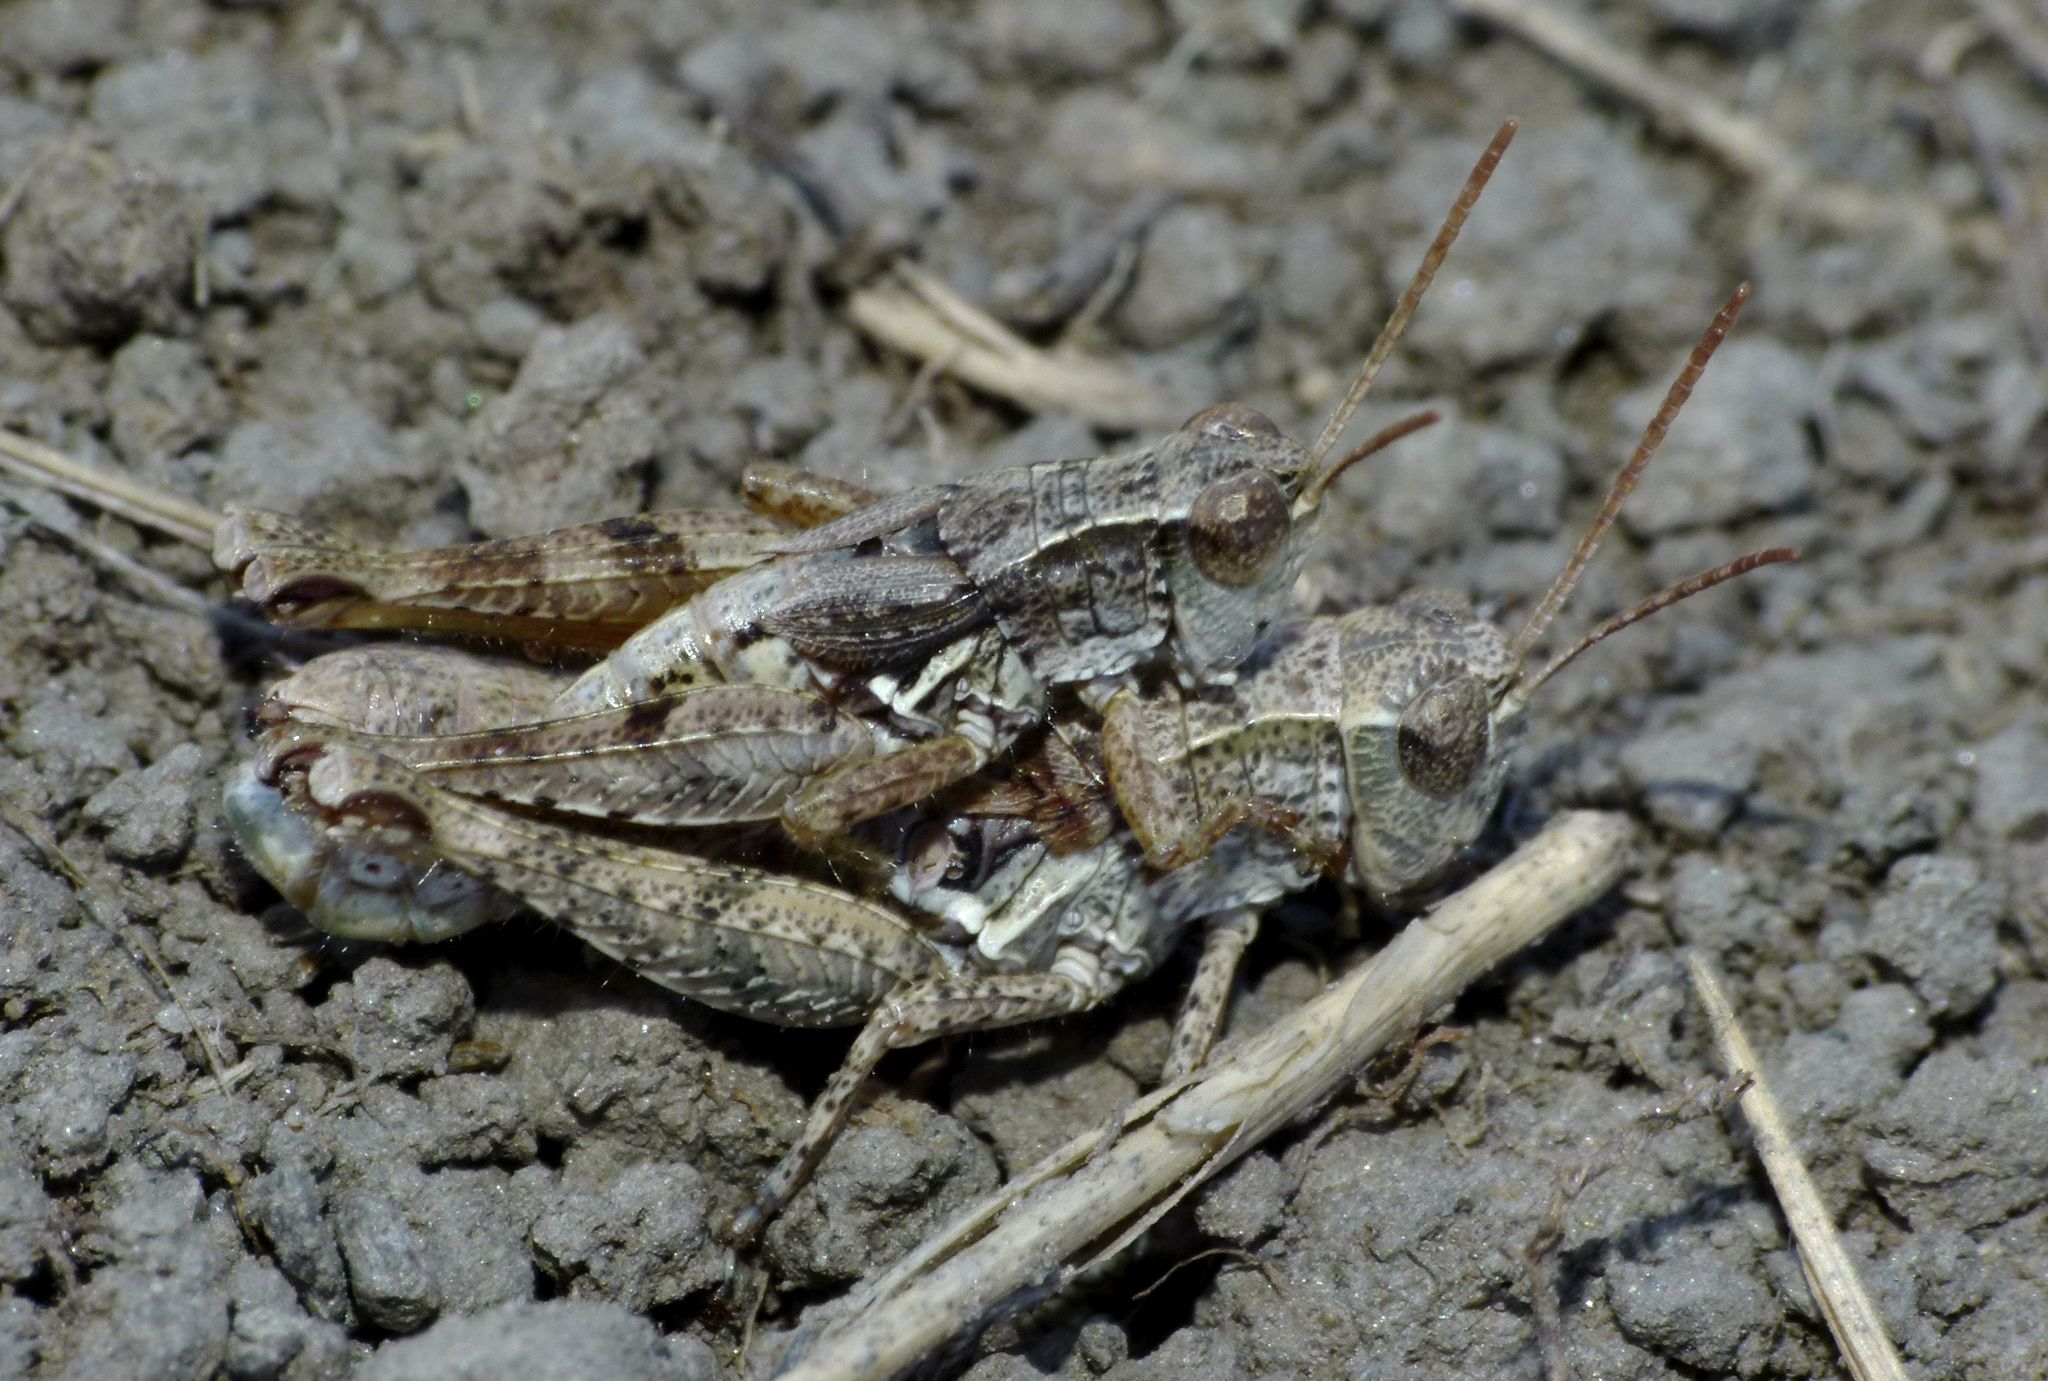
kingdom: Animalia
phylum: Arthropoda
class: Insecta
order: Orthoptera
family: Acrididae
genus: Phaulacridium
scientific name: Phaulacridium marginale
